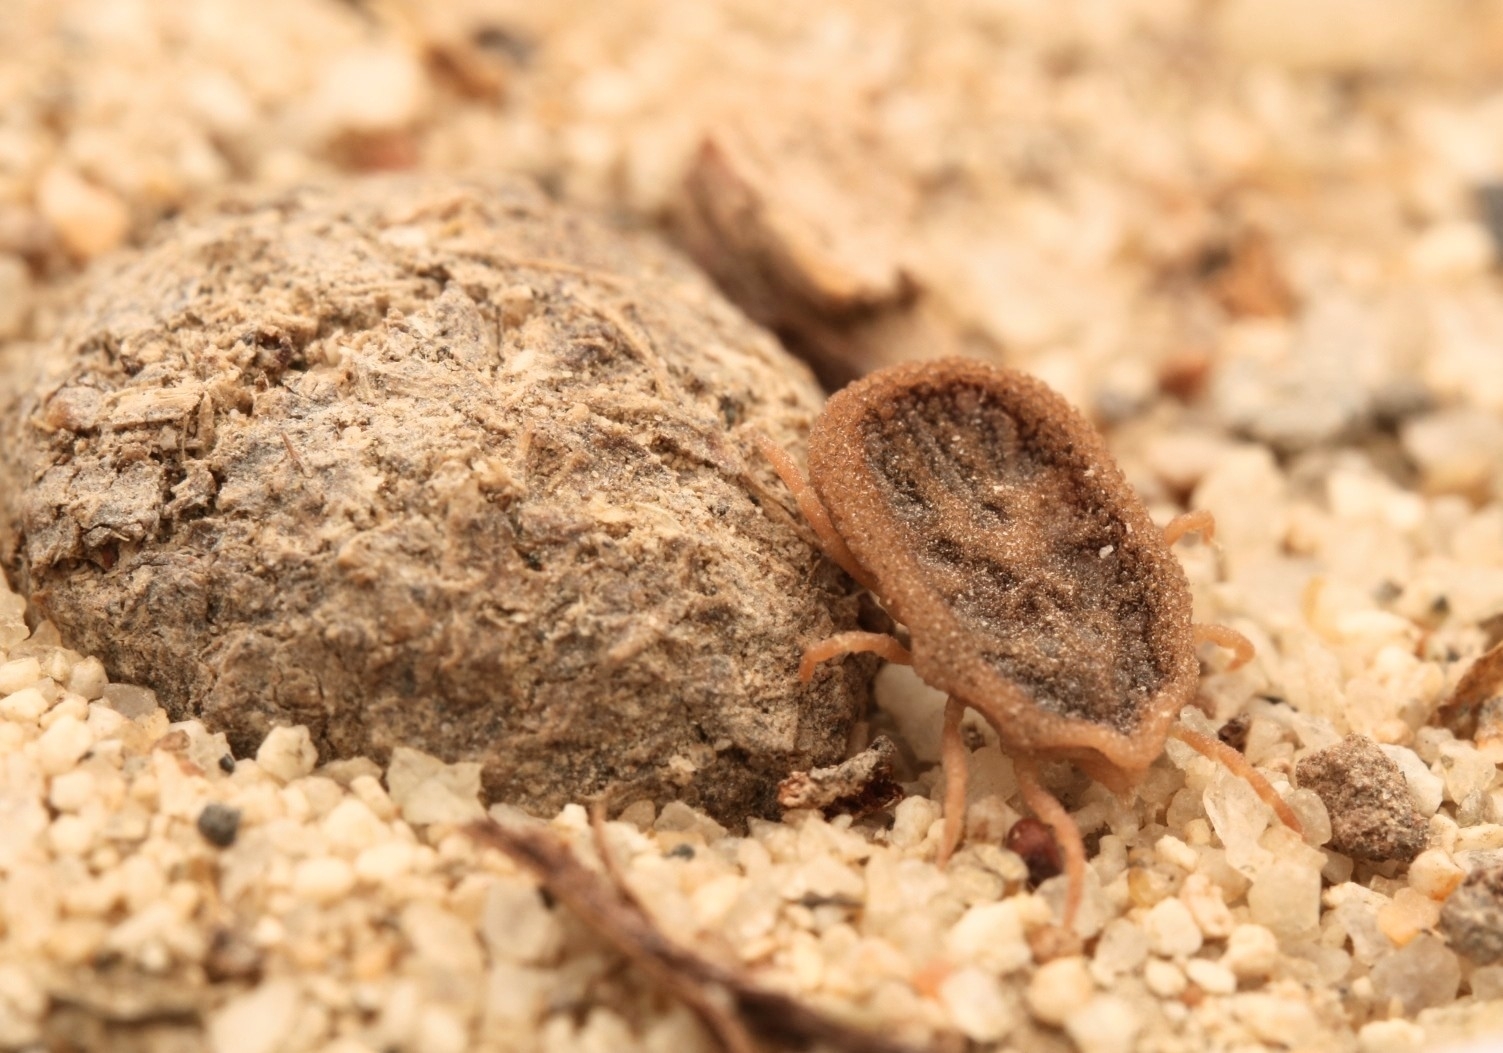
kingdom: Animalia
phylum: Arthropoda
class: Arachnida
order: Ixodida
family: Argasidae
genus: Carios
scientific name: Carios kelleyi
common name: Bat tick
